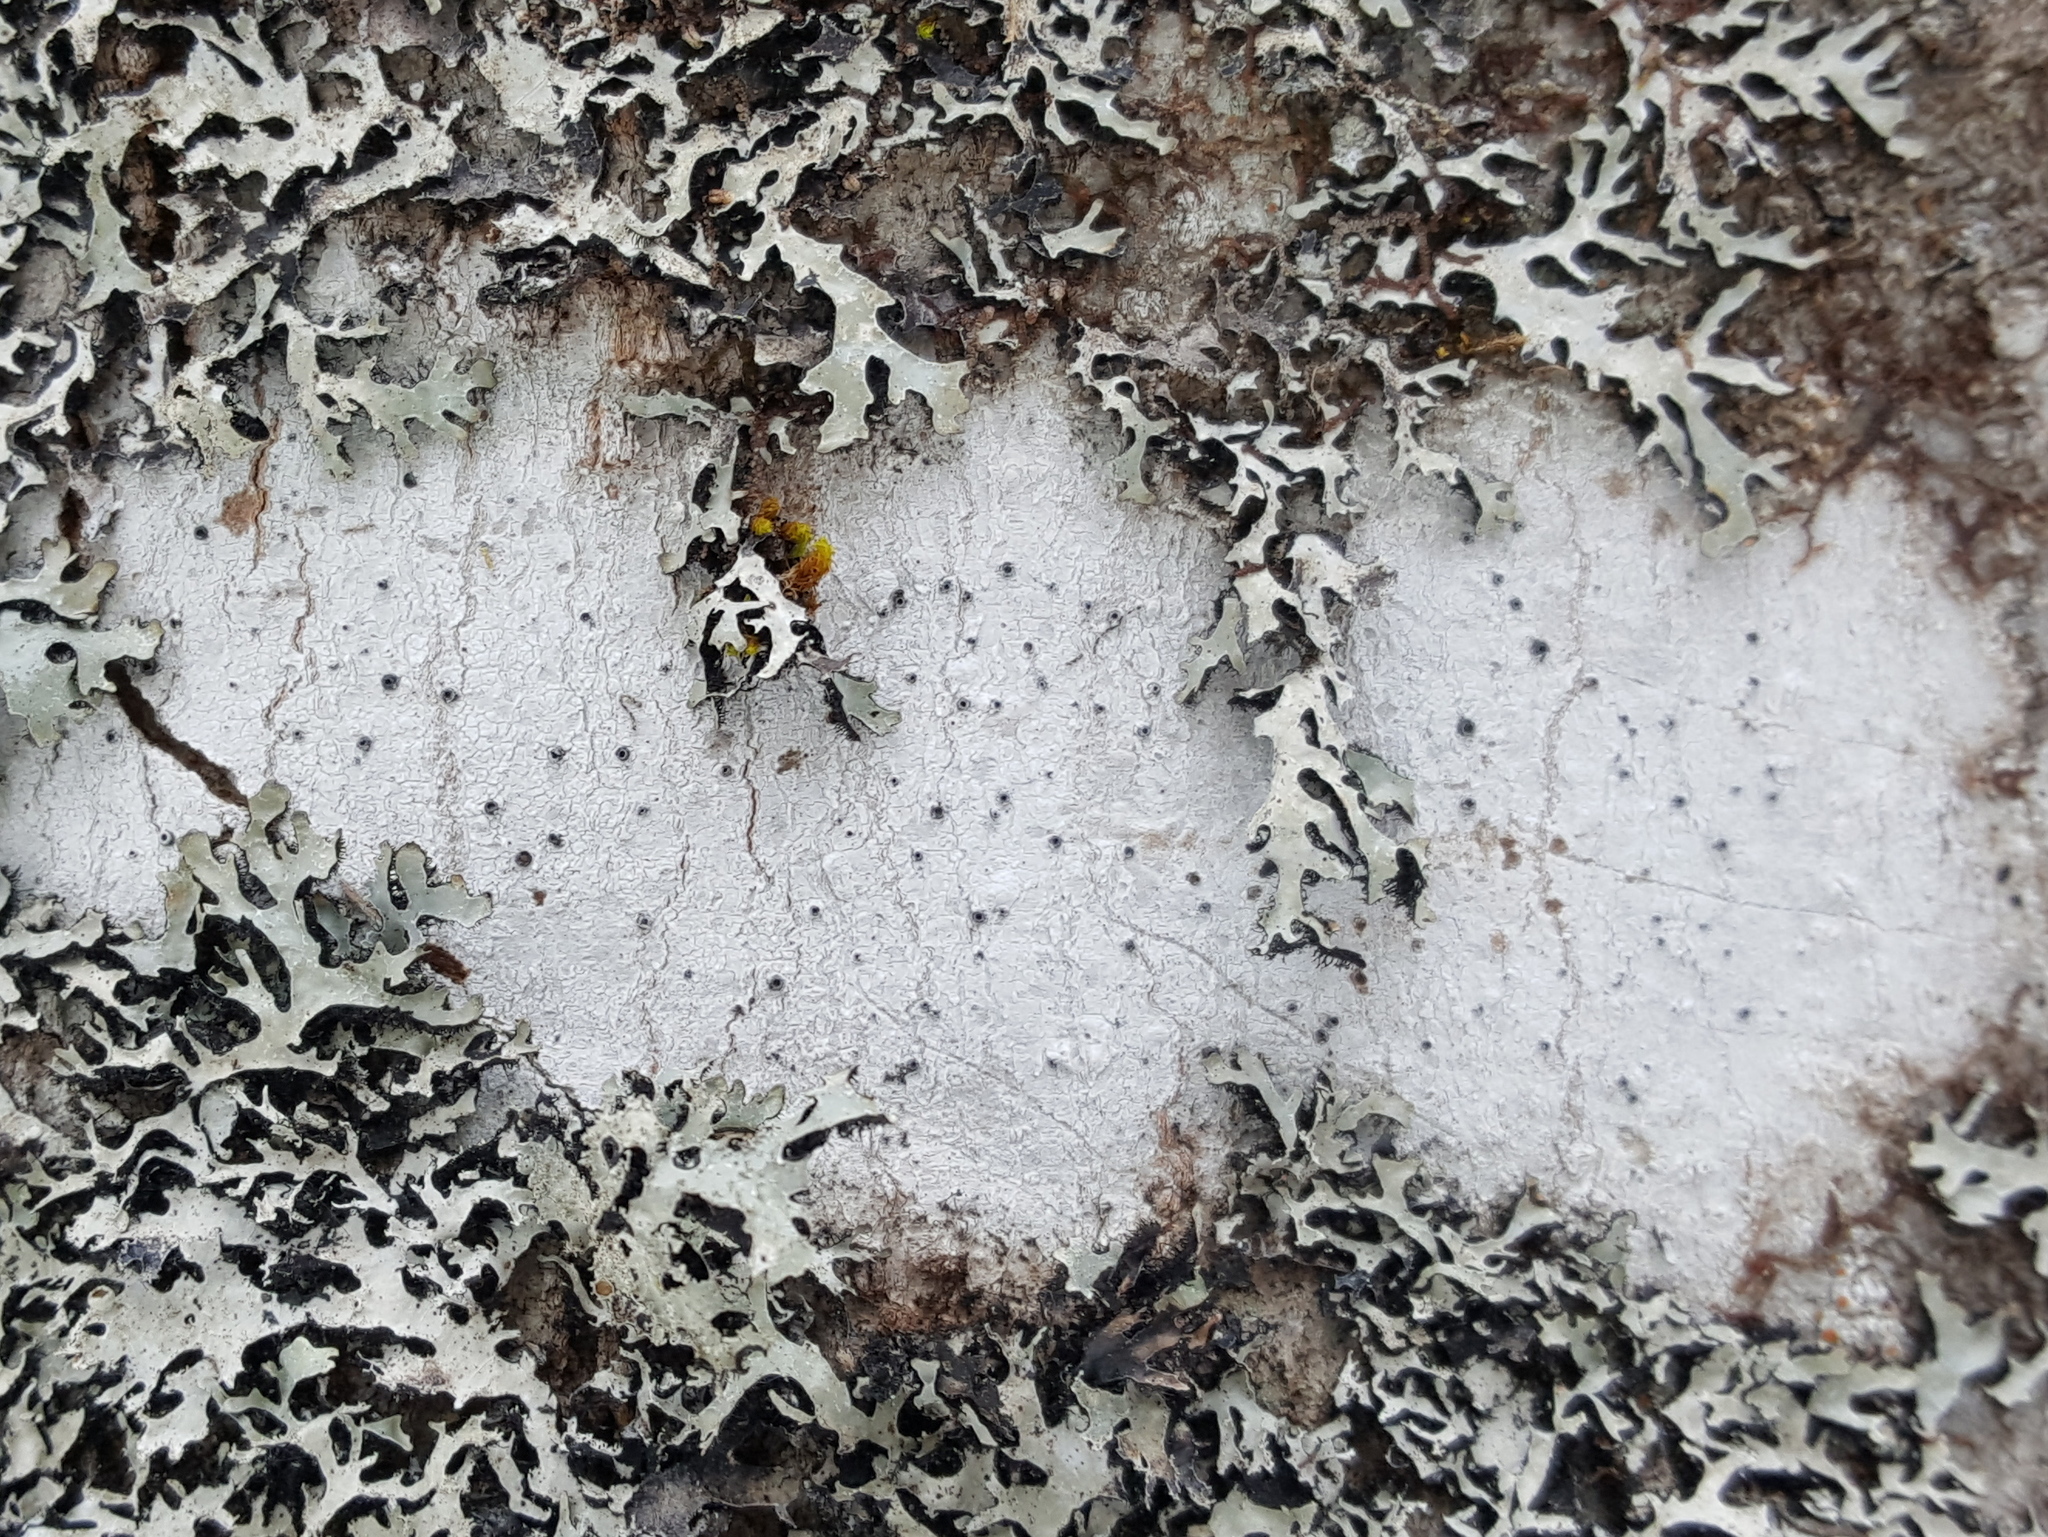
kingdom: Fungi
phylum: Ascomycota
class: Lecanoromycetes
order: Ostropales
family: Stictidaceae
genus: Stictis
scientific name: Stictis urceolata
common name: Can-of-worms lichen
